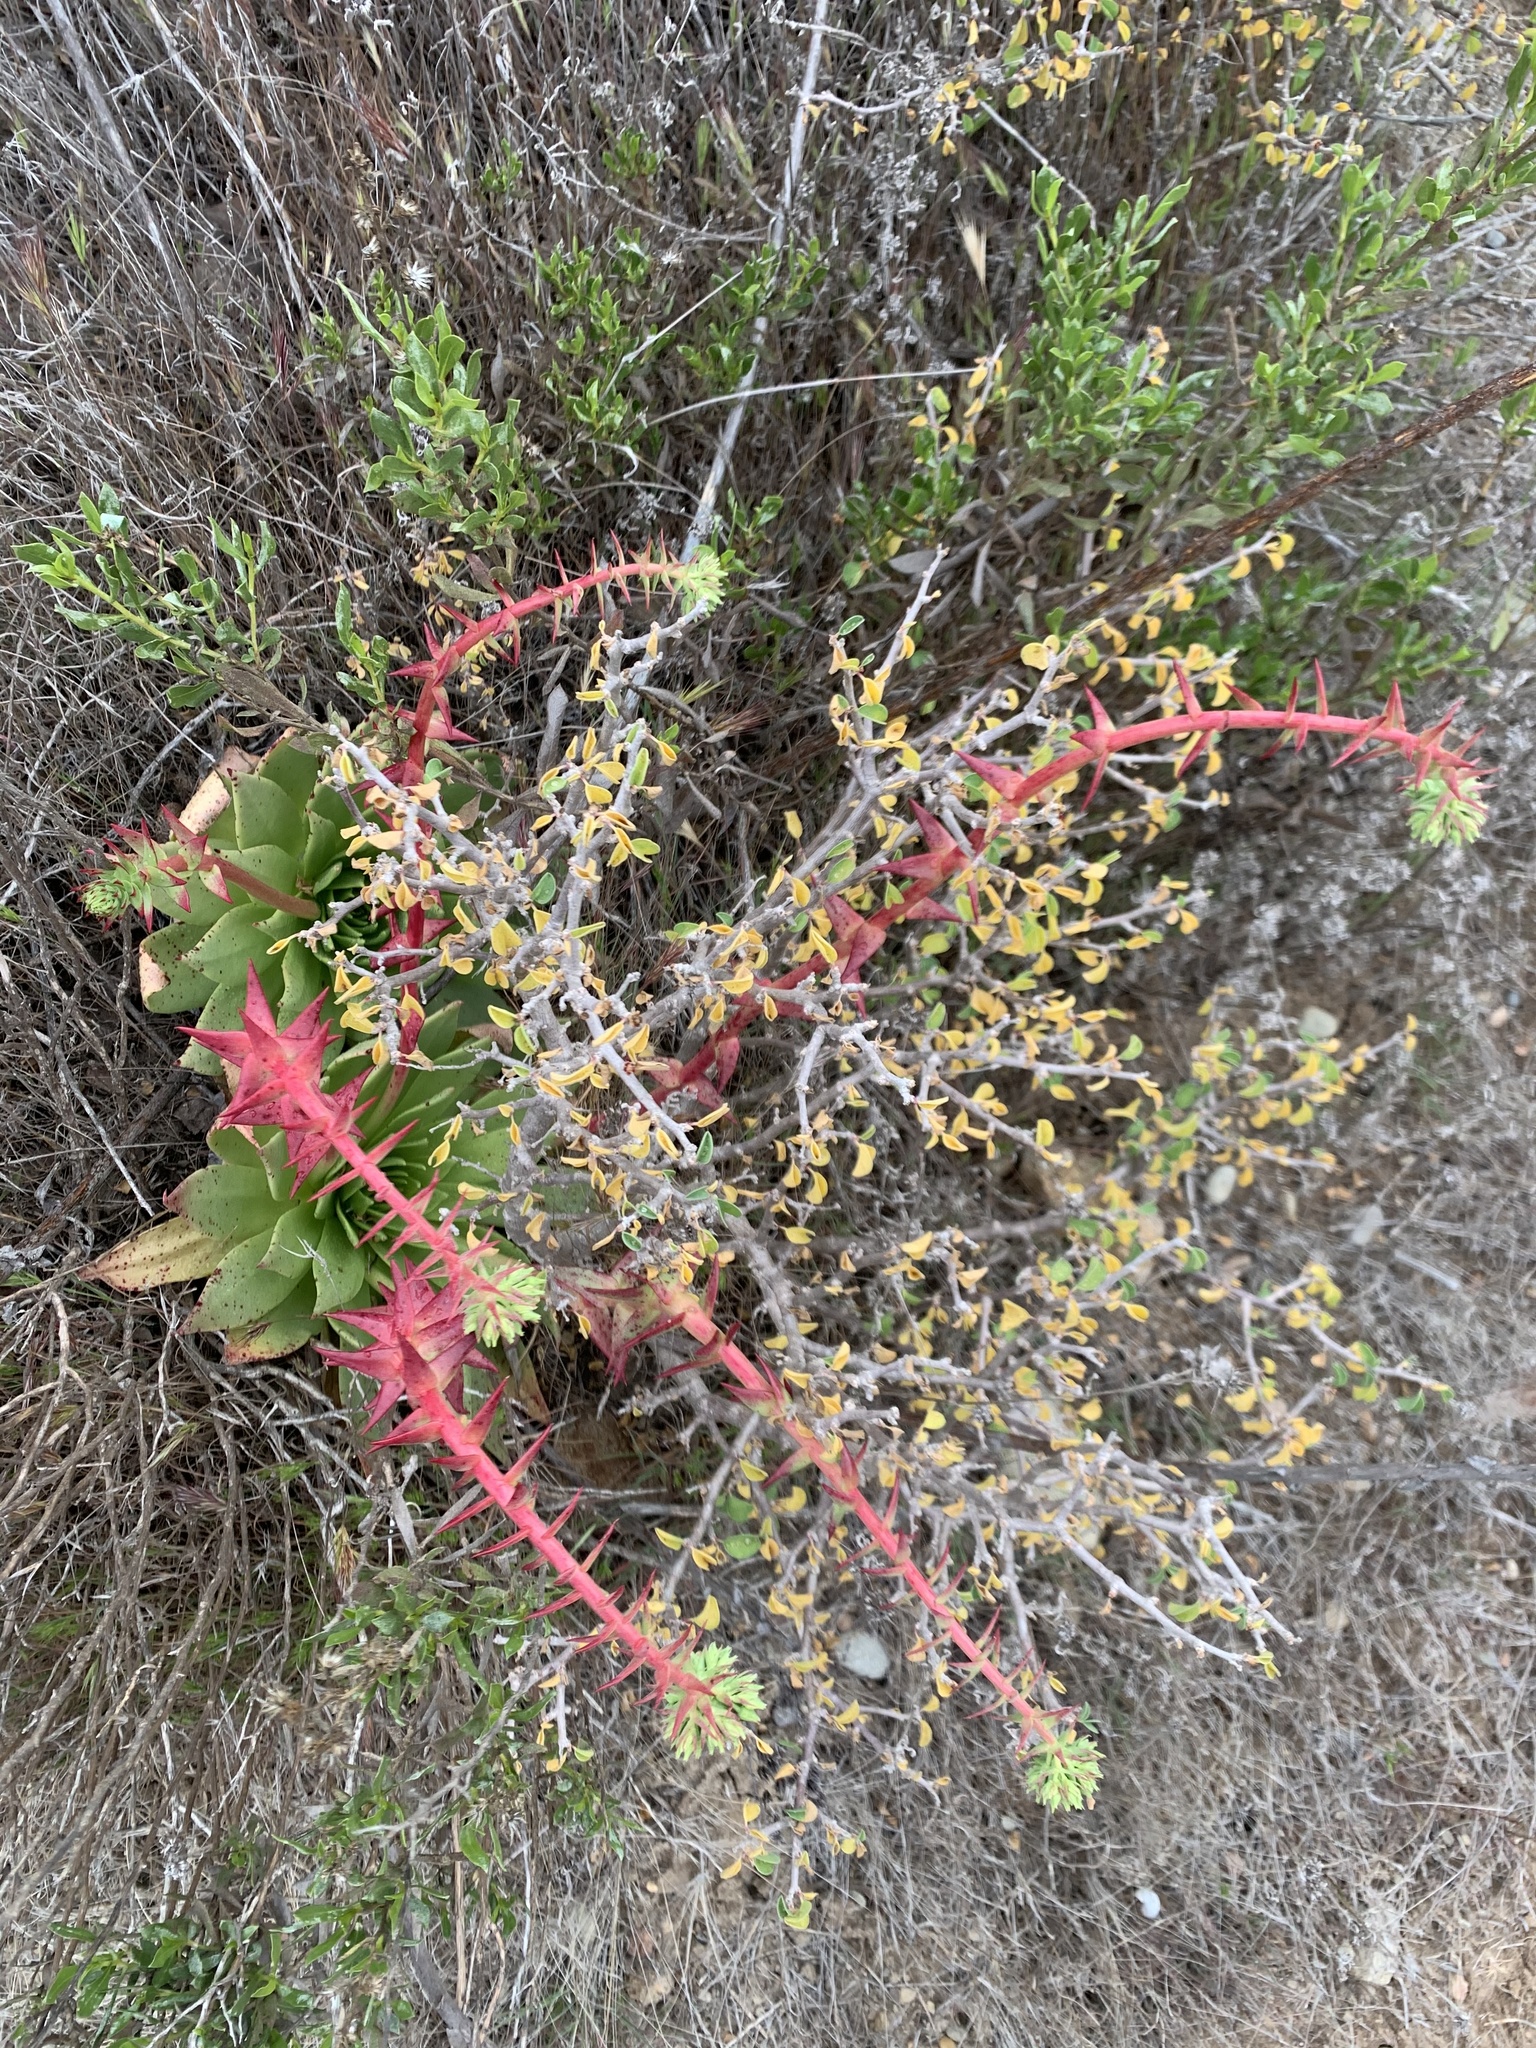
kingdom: Plantae
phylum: Tracheophyta
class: Magnoliopsida
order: Saxifragales
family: Crassulaceae
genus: Dudleya
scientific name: Dudleya brittonii
